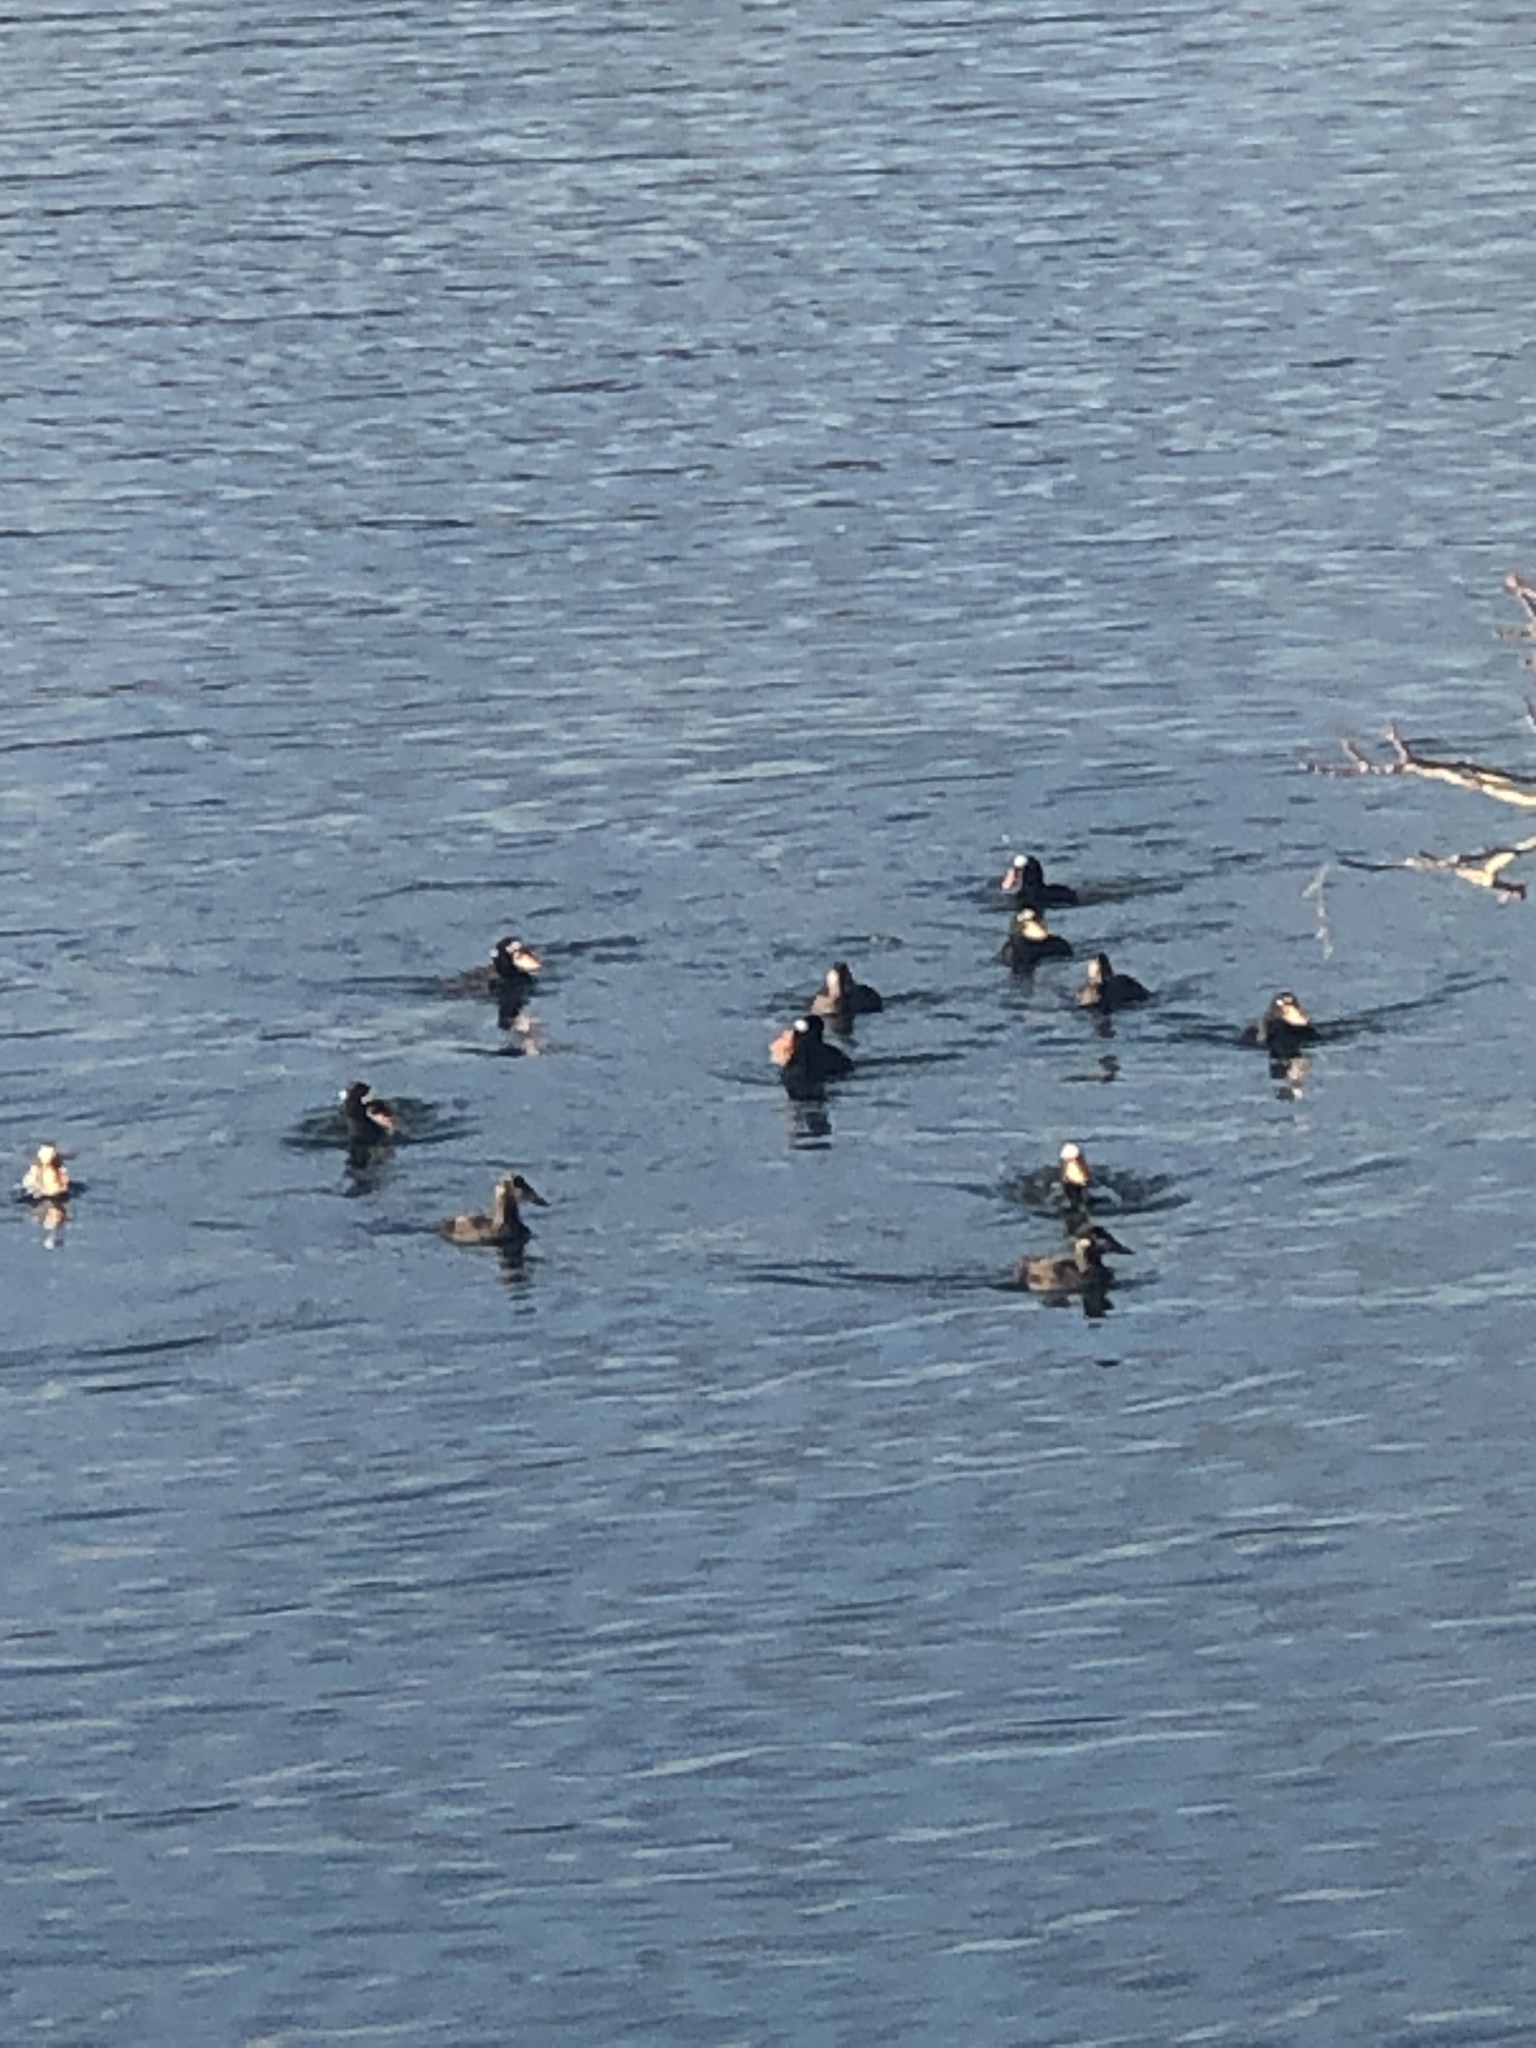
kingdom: Animalia
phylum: Chordata
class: Aves
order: Anseriformes
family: Anatidae
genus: Melanitta
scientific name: Melanitta perspicillata
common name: Surf scoter
